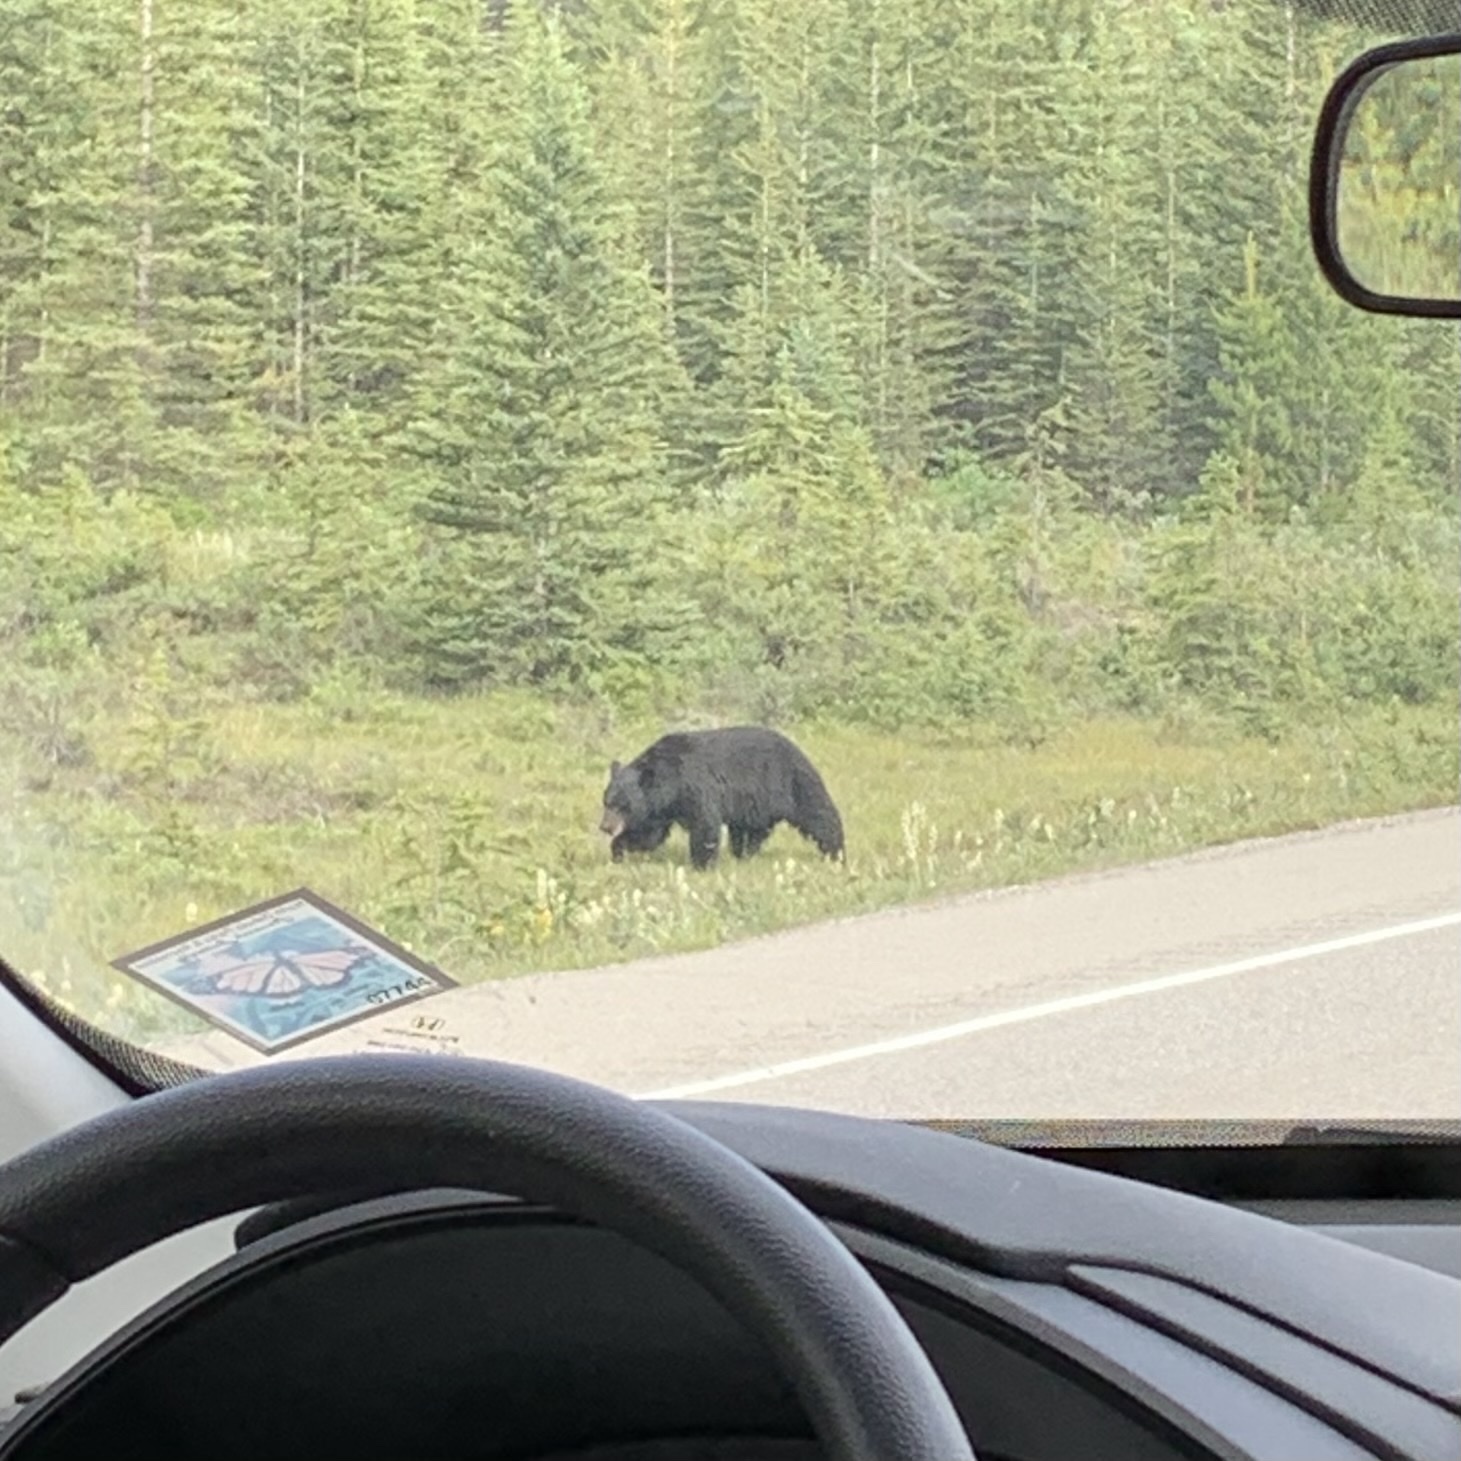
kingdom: Animalia
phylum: Chordata
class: Mammalia
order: Carnivora
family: Ursidae
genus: Ursus
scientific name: Ursus americanus
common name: American black bear
